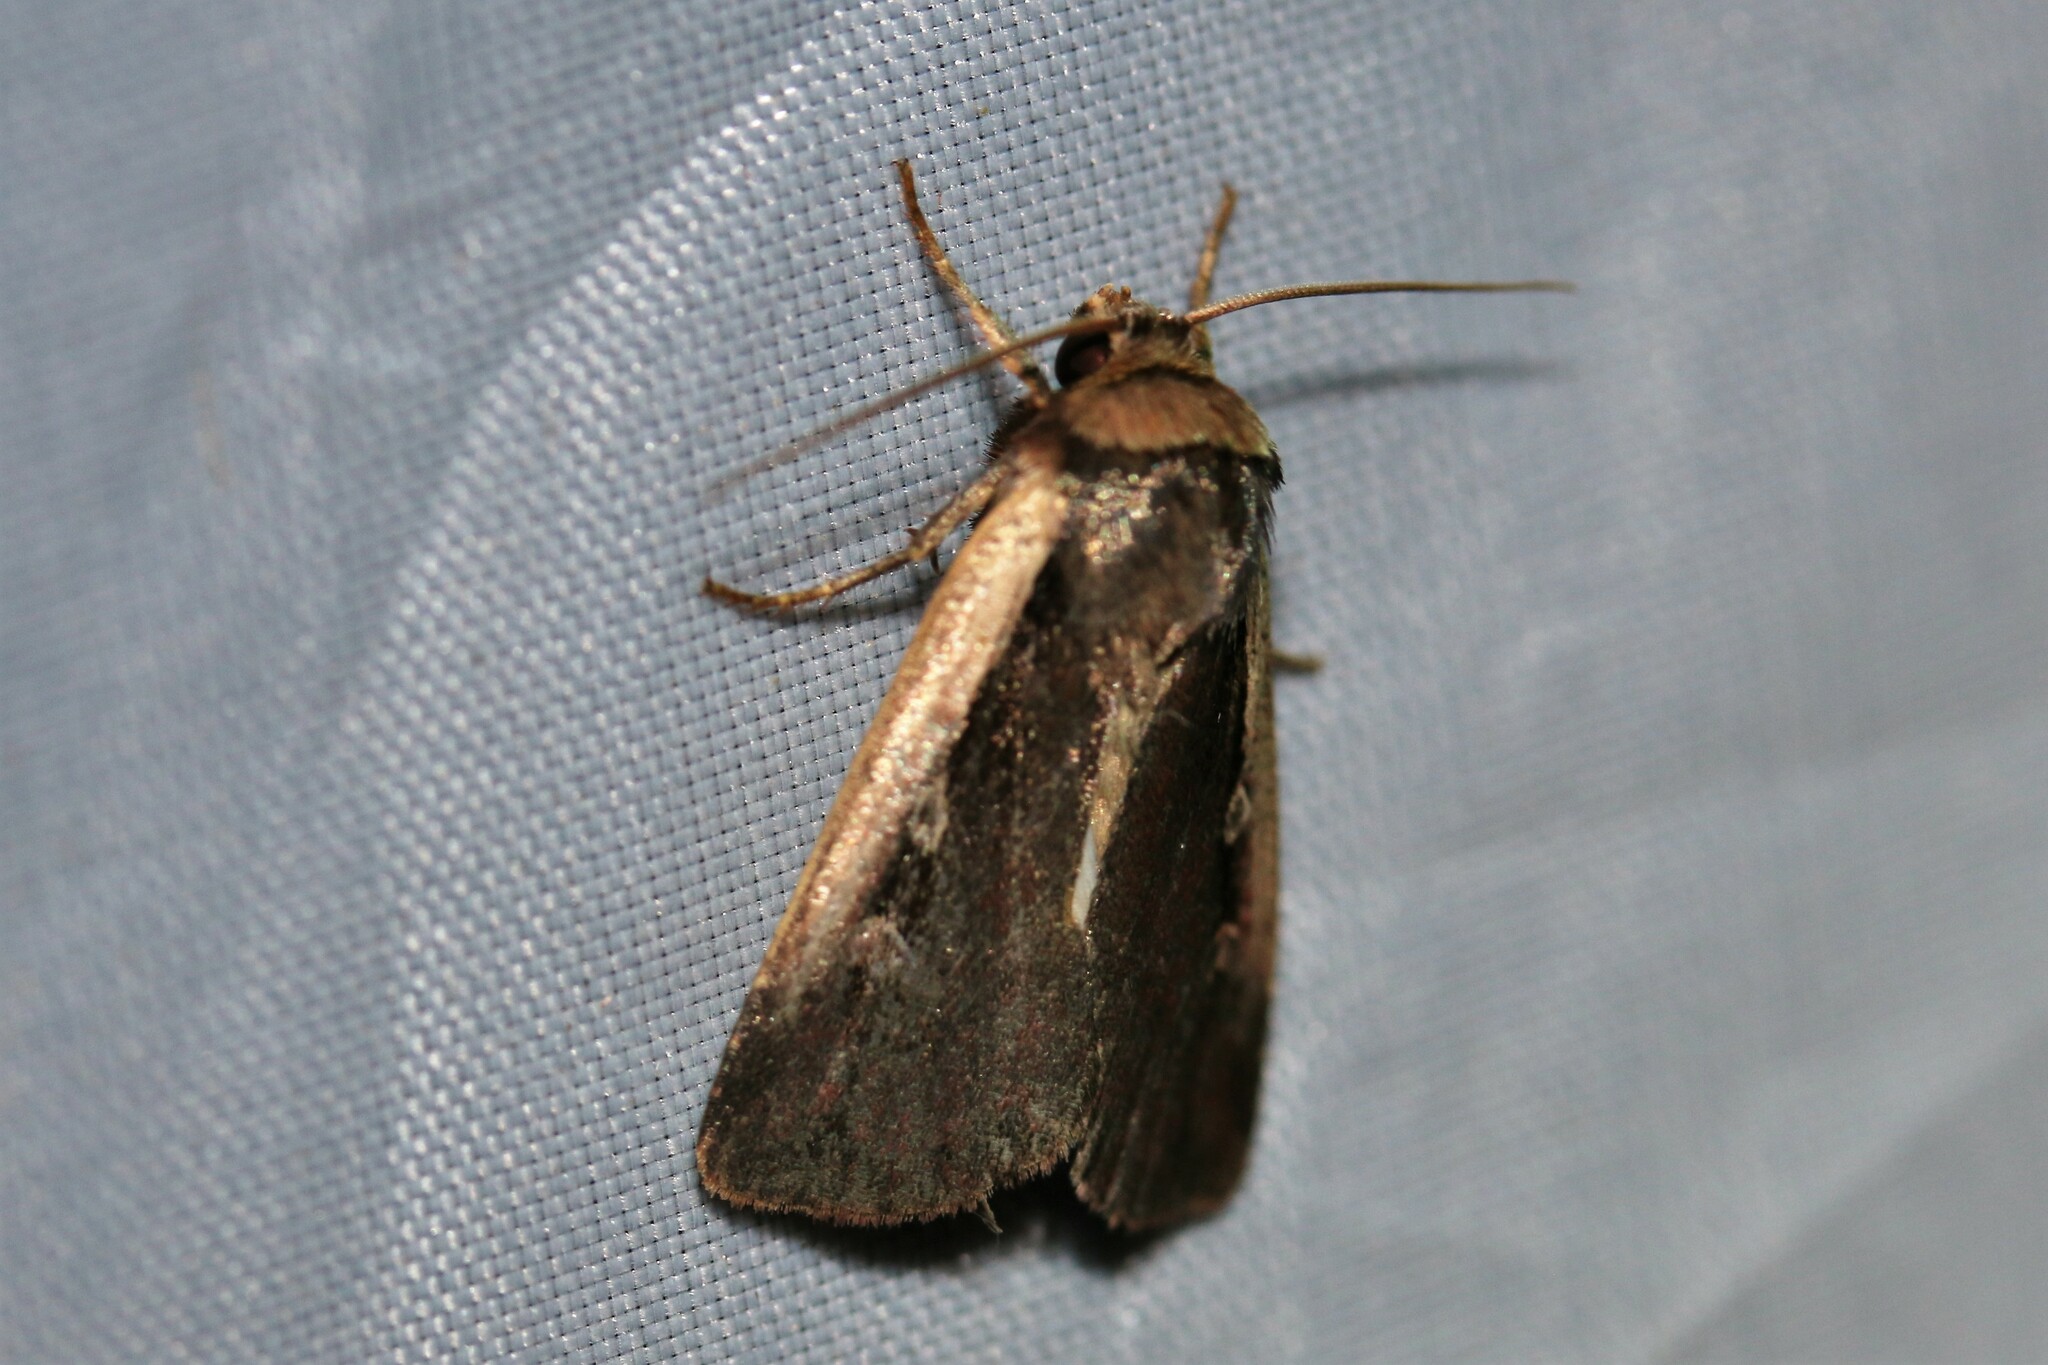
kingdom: Animalia
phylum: Arthropoda
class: Insecta
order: Lepidoptera
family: Noctuidae
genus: Ochropleura
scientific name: Ochropleura plecta
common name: Flame shoulder
